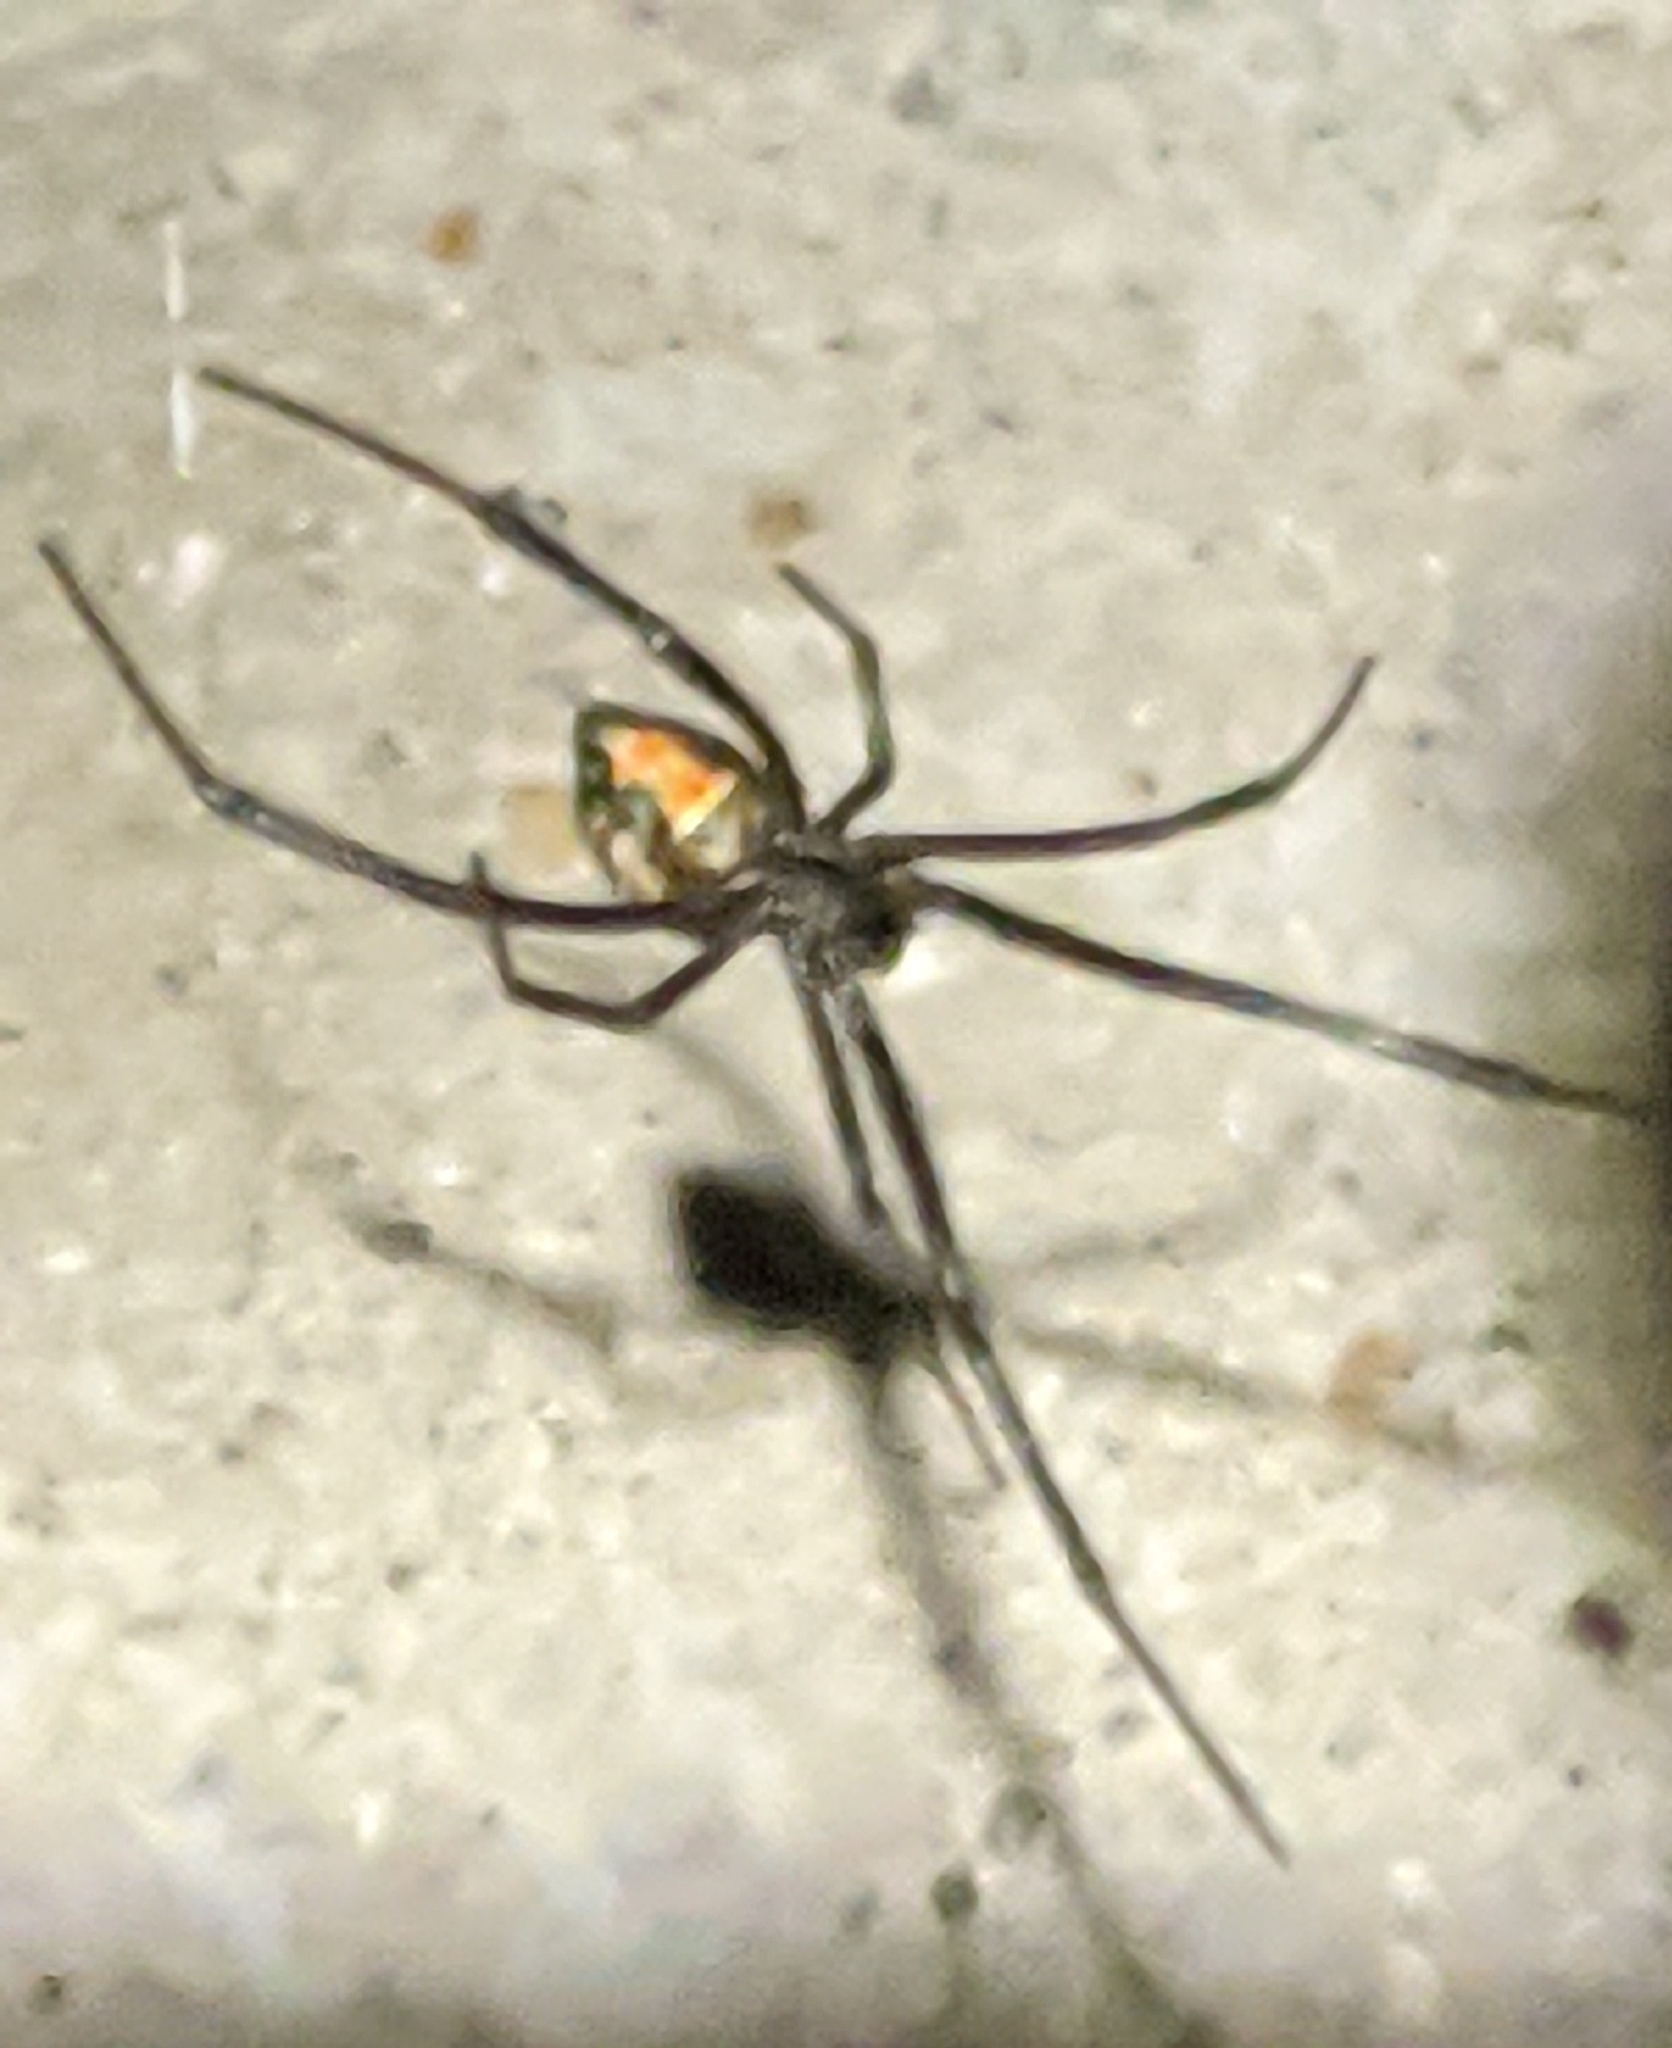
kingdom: Animalia
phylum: Arthropoda
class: Arachnida
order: Araneae
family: Theridiidae
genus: Latrodectus
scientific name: Latrodectus hesperus
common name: Western black widow
